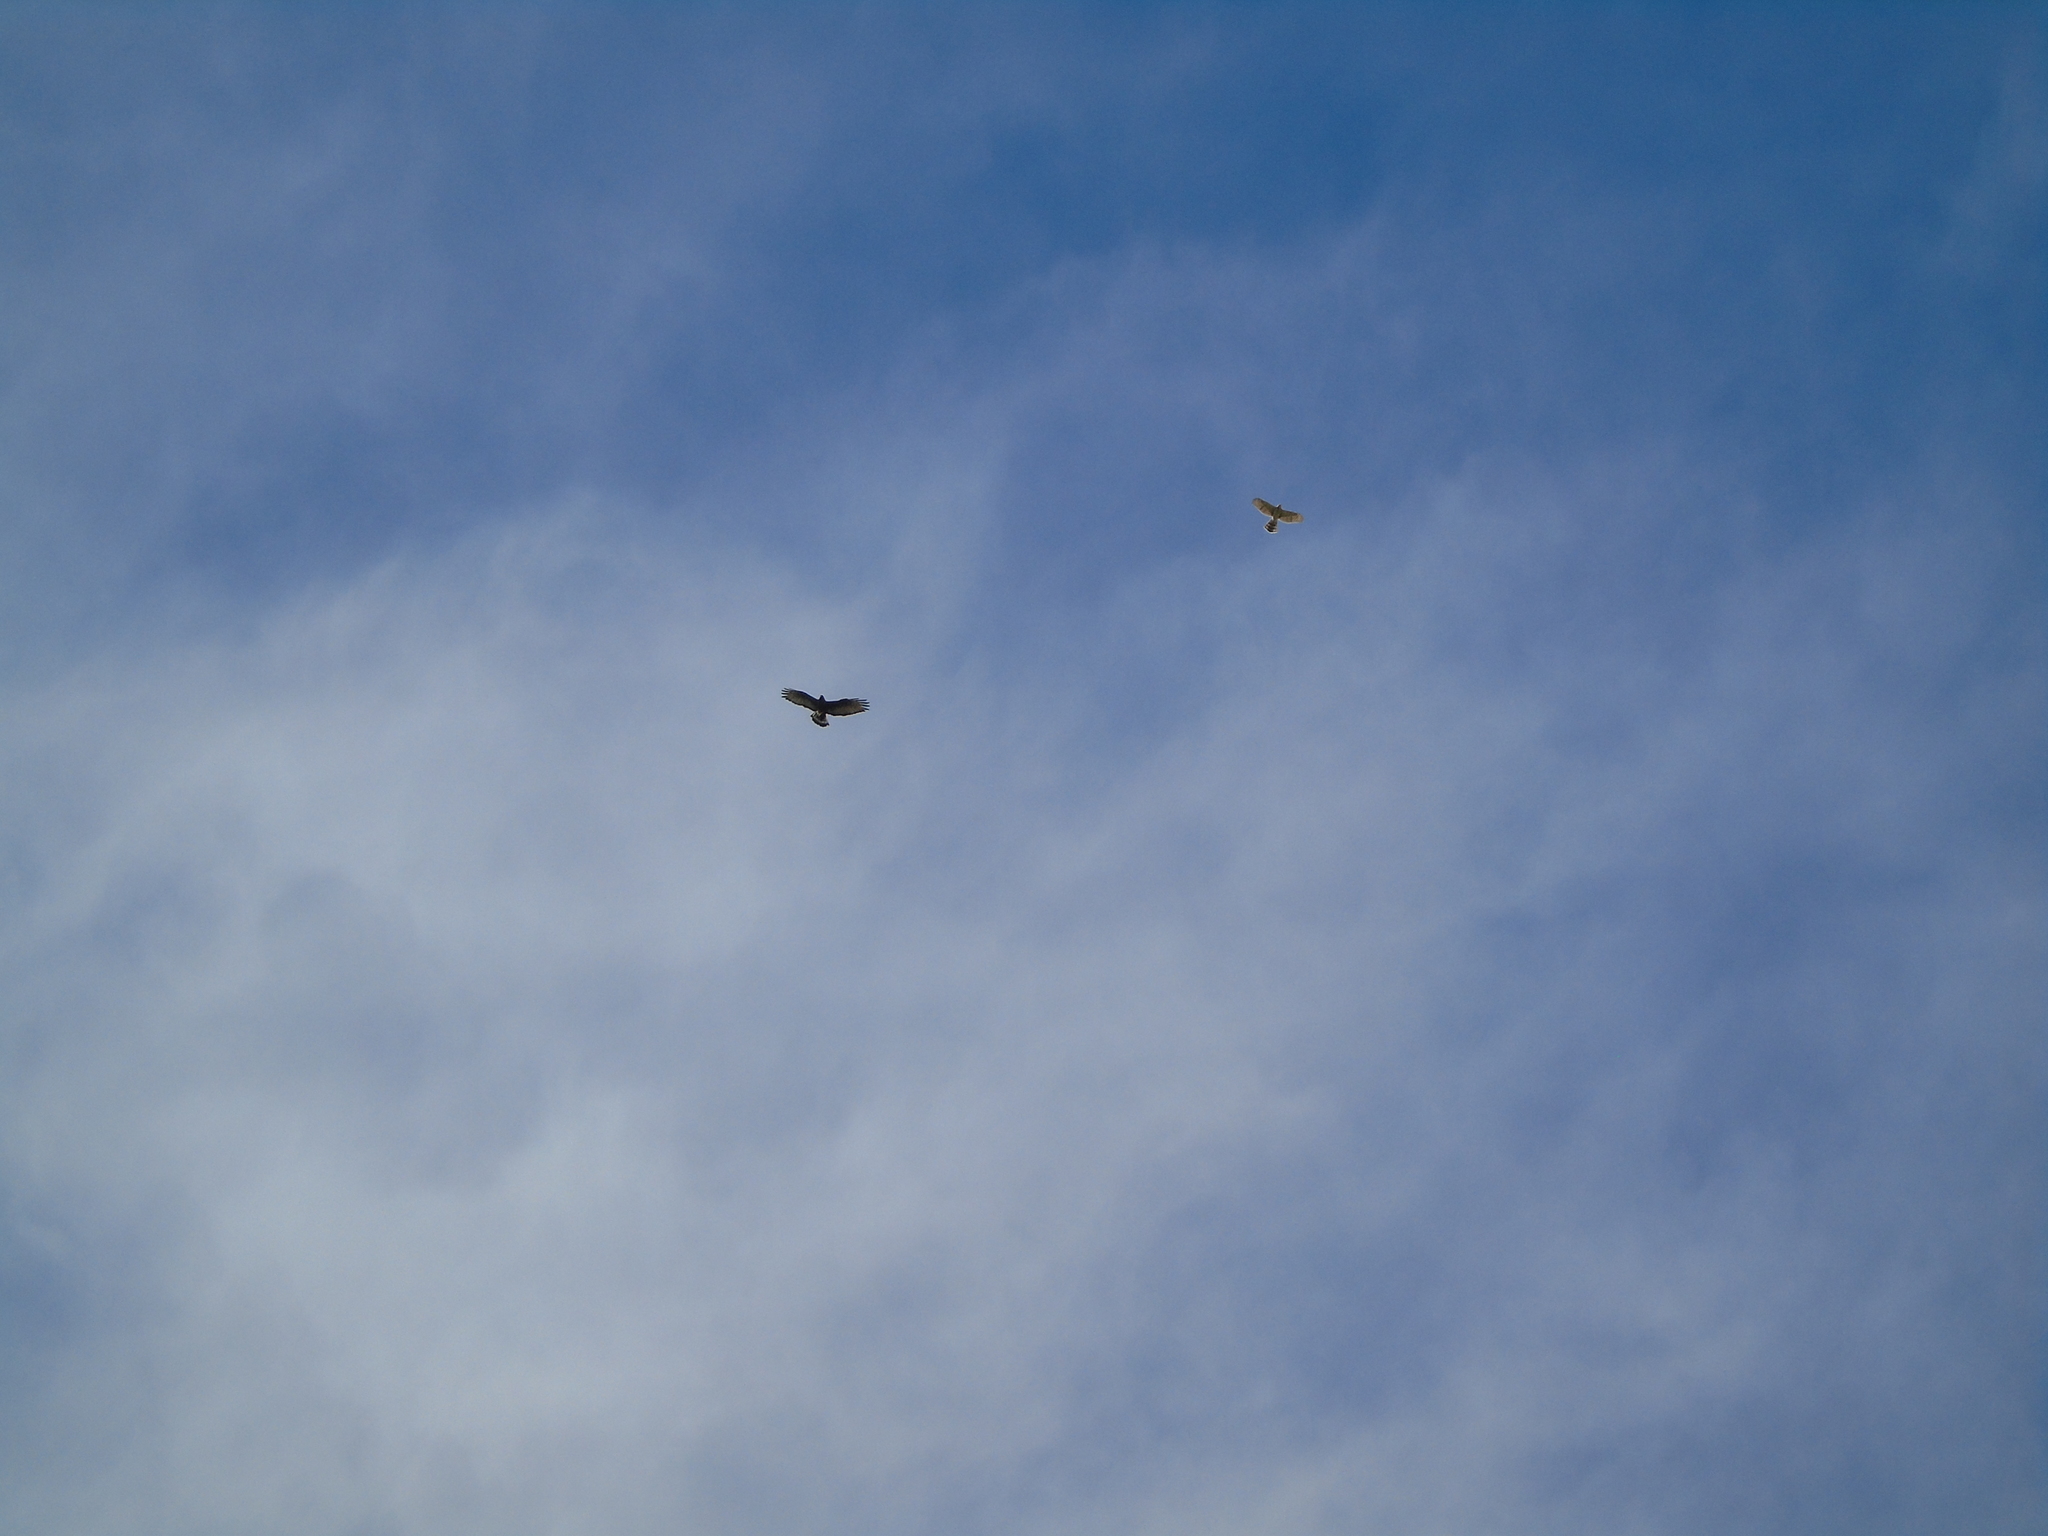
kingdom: Animalia
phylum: Chordata
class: Aves
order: Accipitriformes
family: Accipitridae
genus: Accipiter
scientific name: Accipiter cooperii
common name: Cooper's hawk
